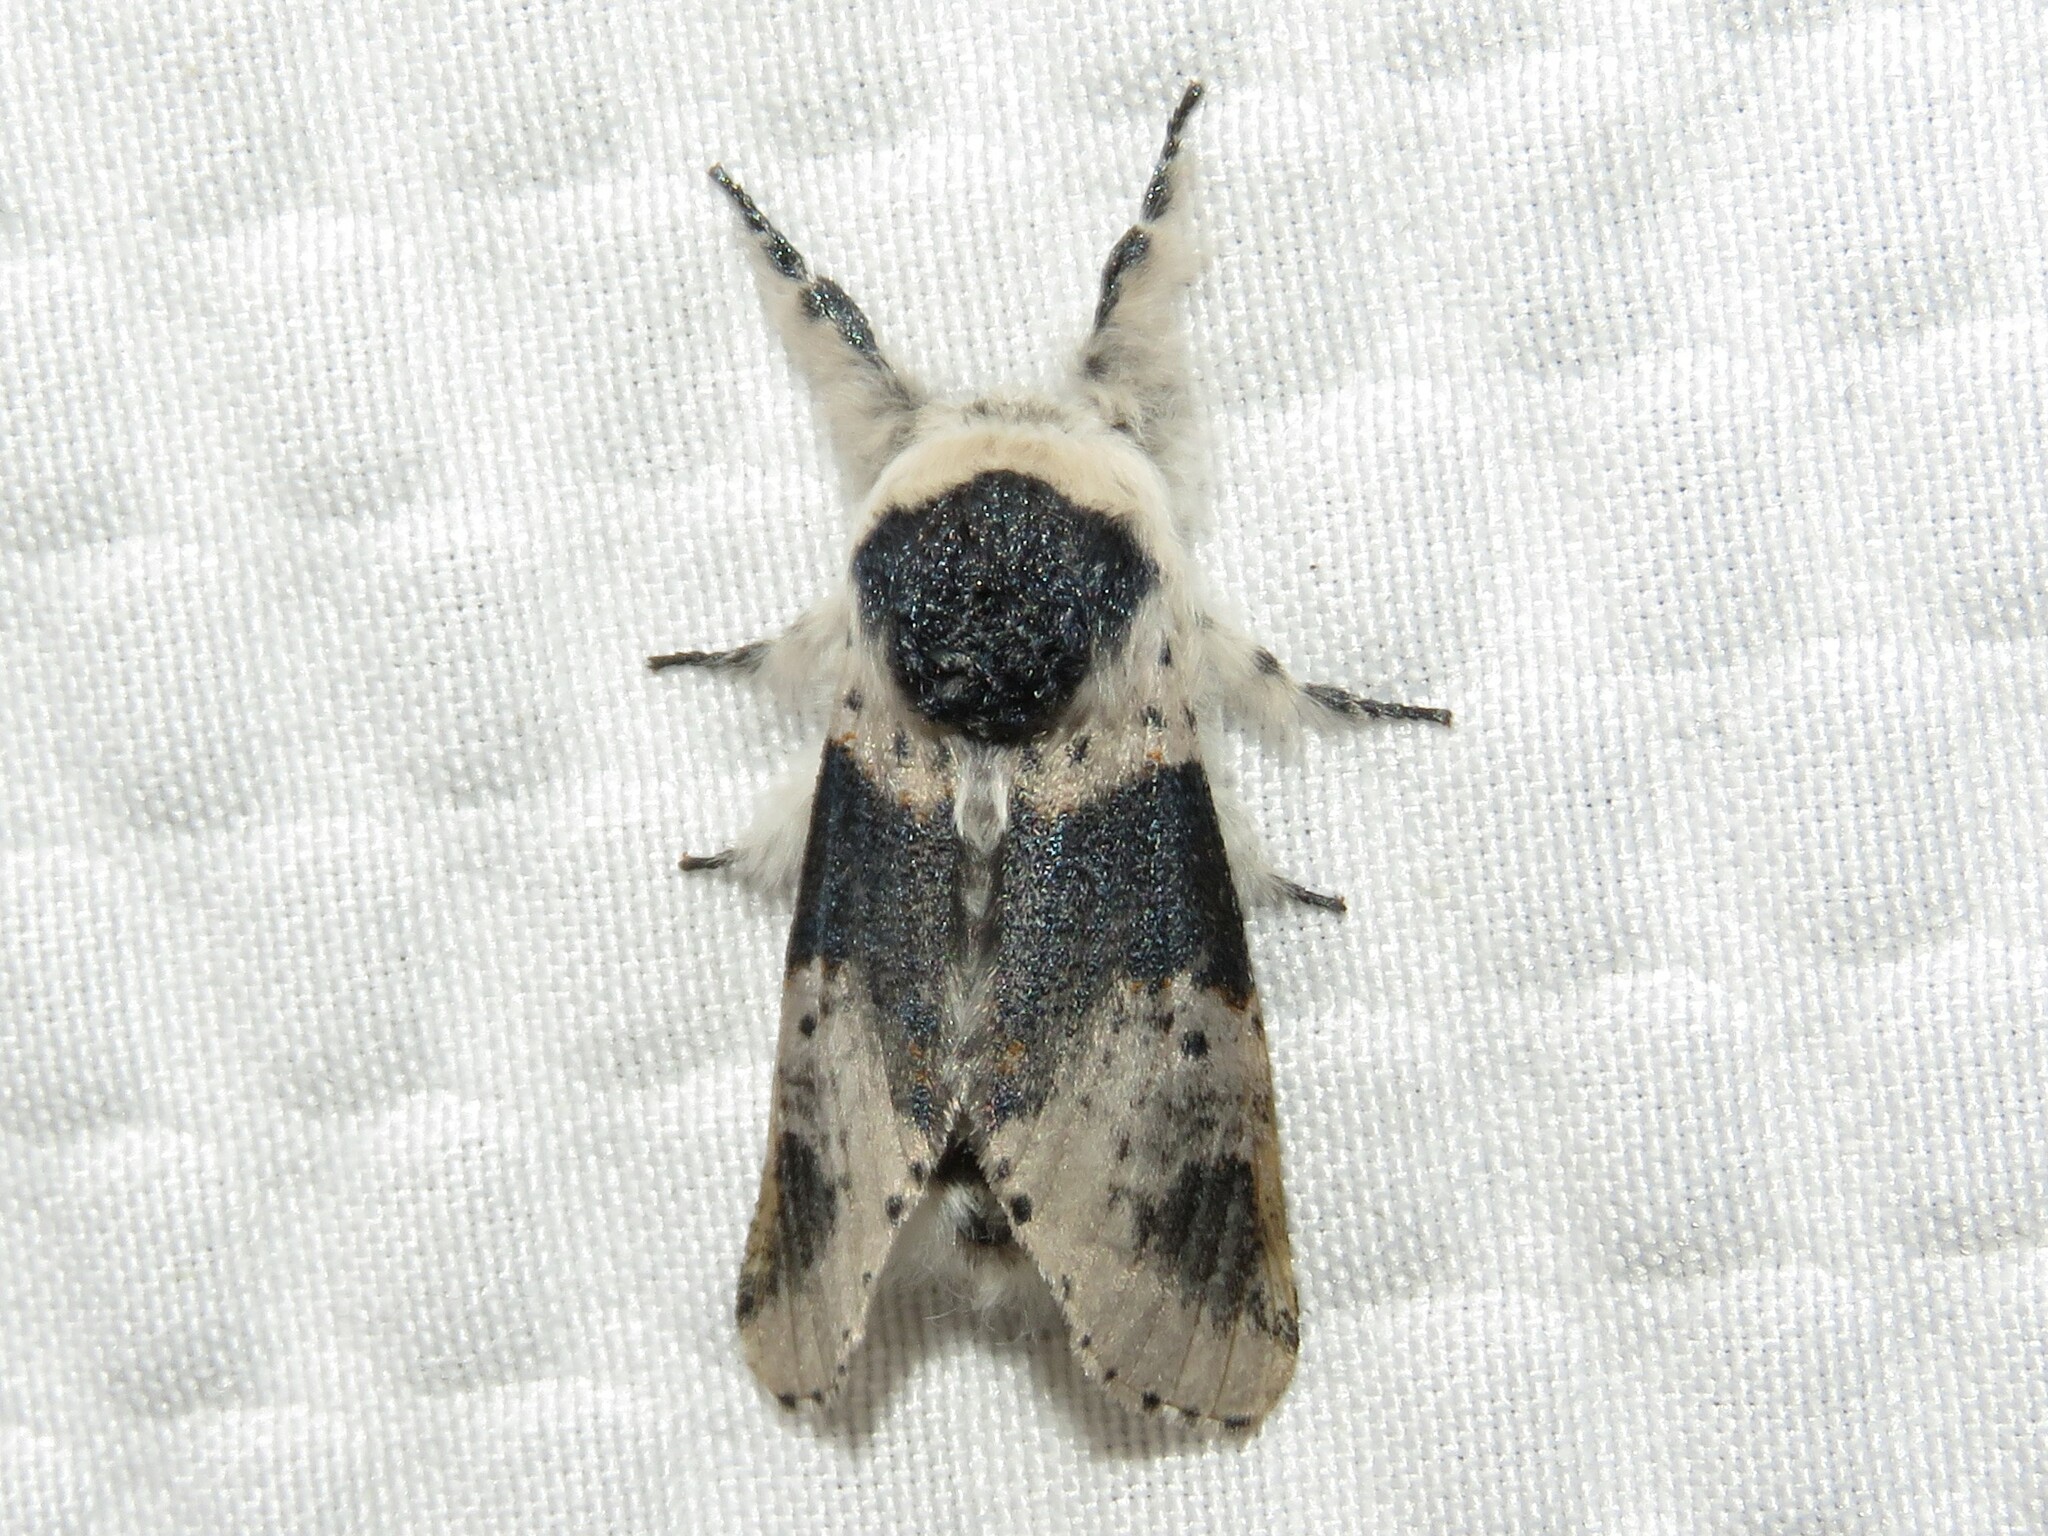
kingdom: Animalia
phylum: Arthropoda
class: Insecta
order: Lepidoptera
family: Notodontidae
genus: Furcula
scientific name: Furcula modesta
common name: Modest furcula moth
